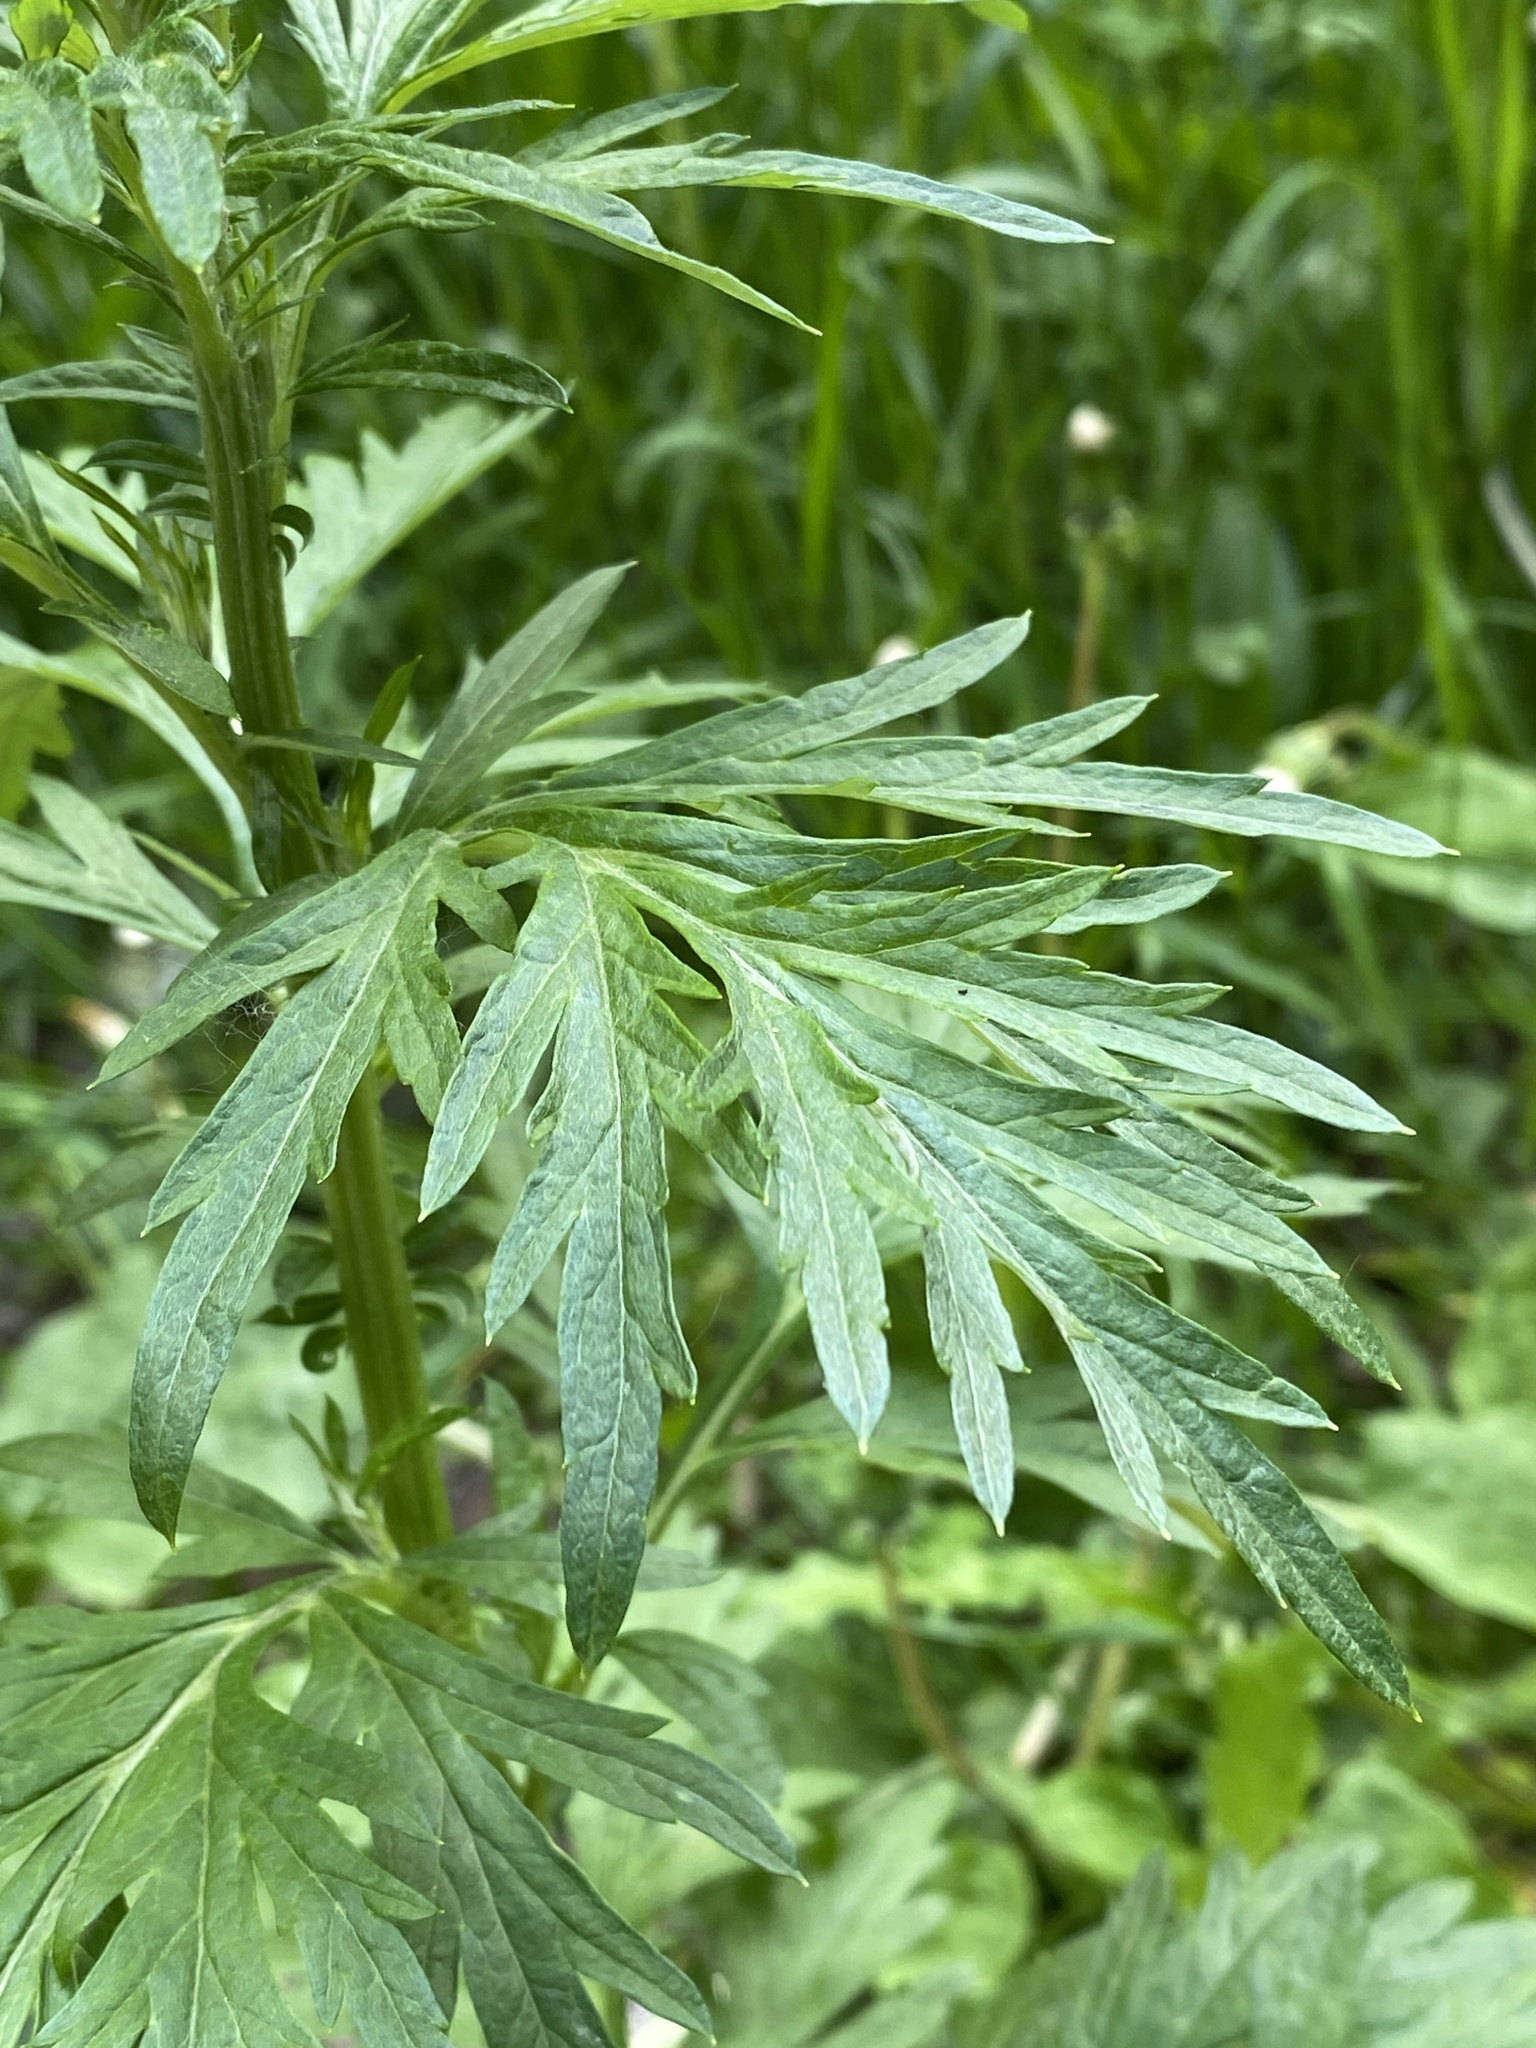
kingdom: Plantae
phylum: Tracheophyta
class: Magnoliopsida
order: Asterales
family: Asteraceae
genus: Artemisia
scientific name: Artemisia vulgaris
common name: Mugwort
